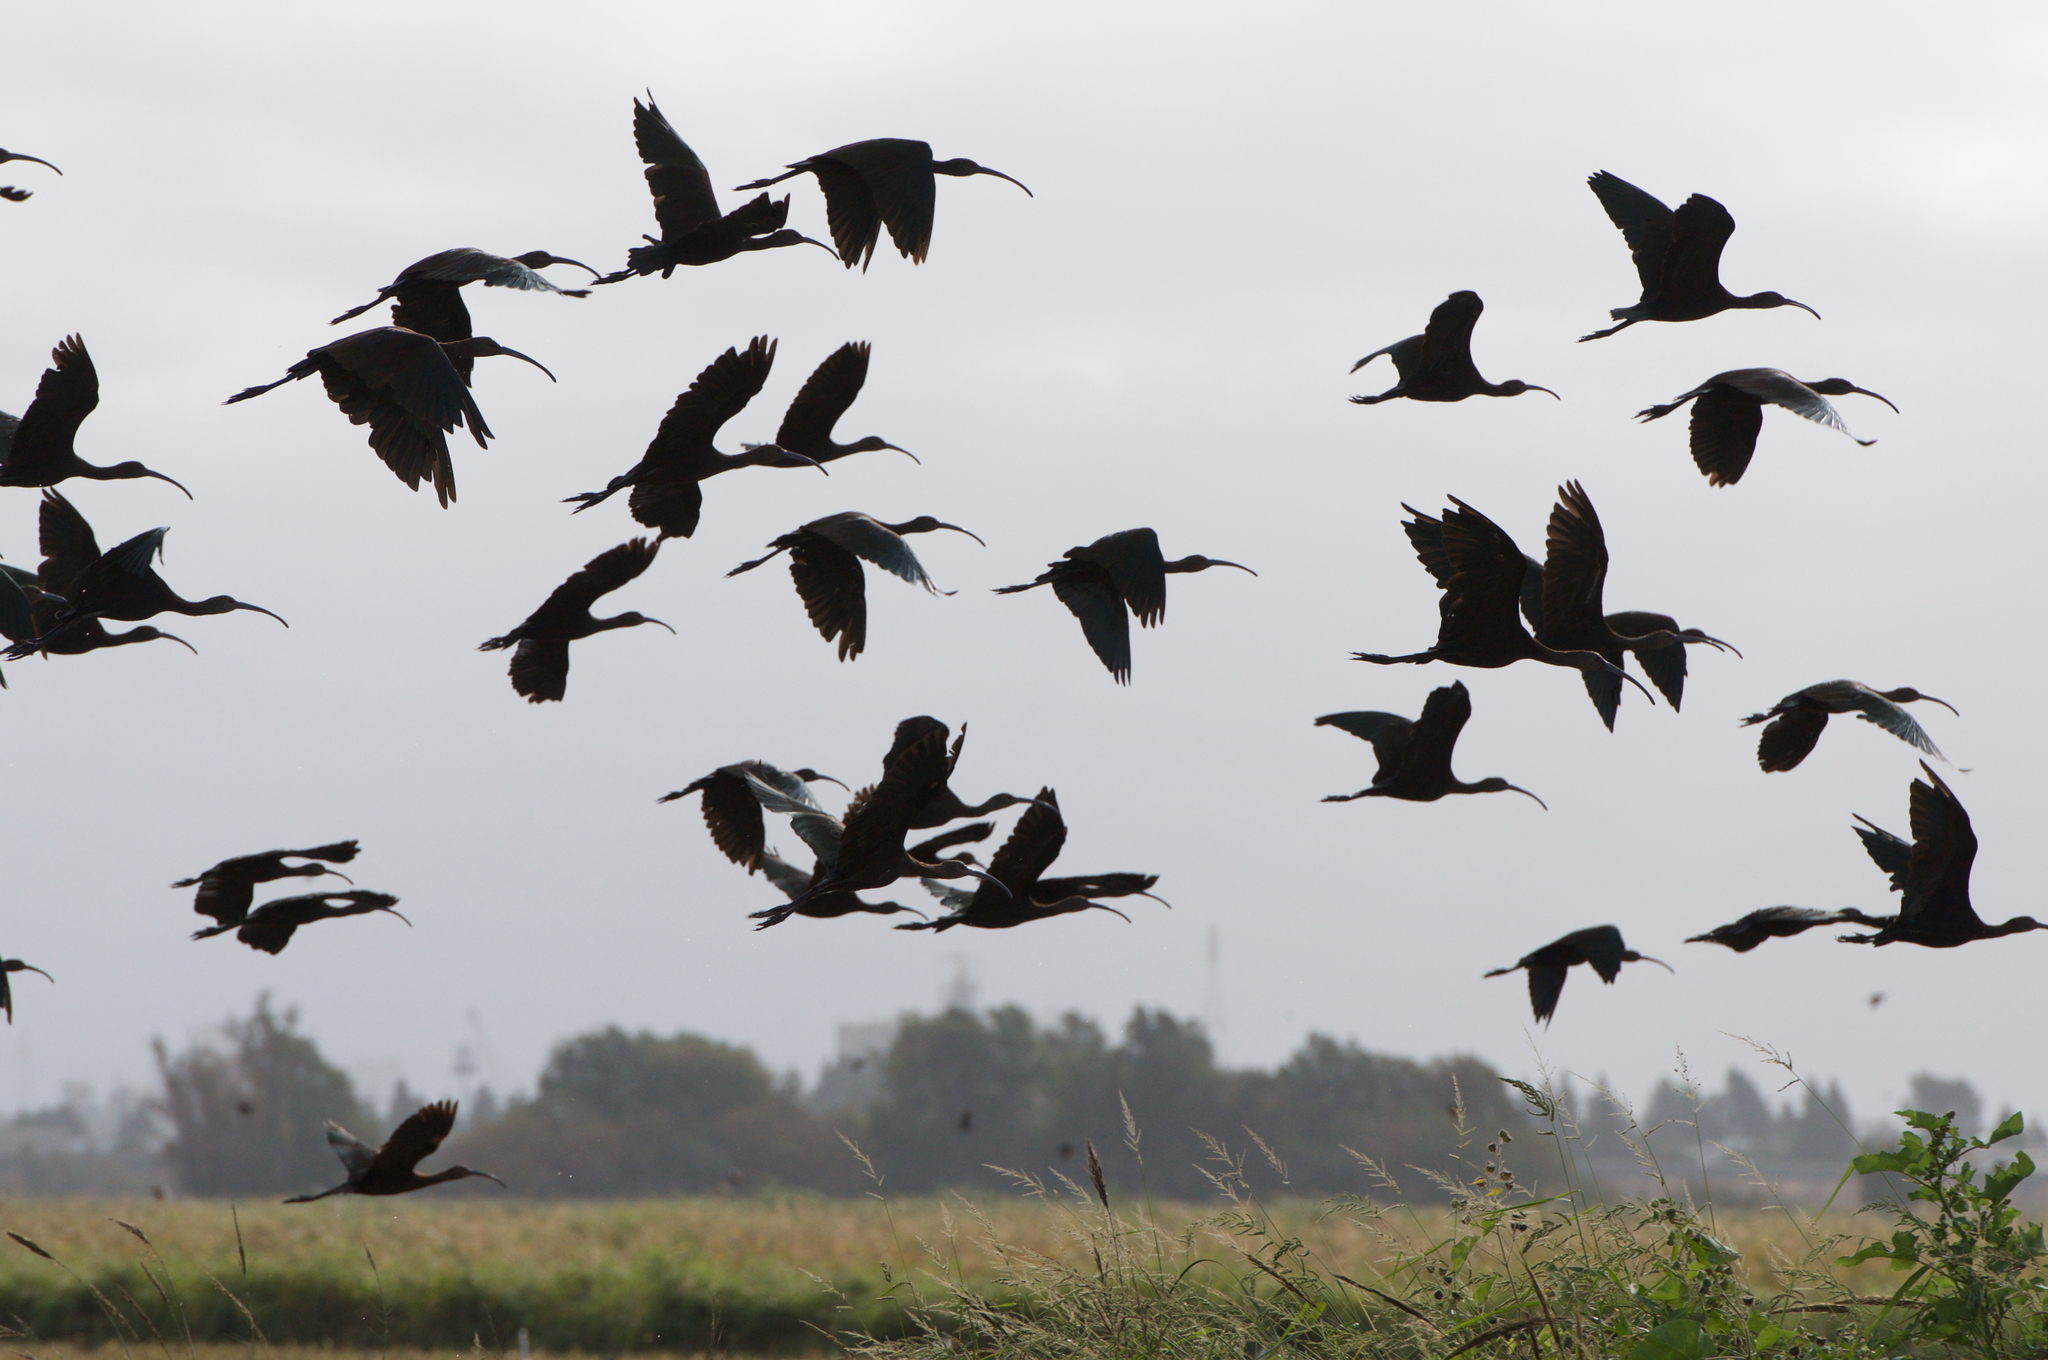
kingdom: Animalia
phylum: Chordata
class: Aves
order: Pelecaniformes
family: Threskiornithidae
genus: Plegadis
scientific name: Plegadis chihi
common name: White-faced ibis
